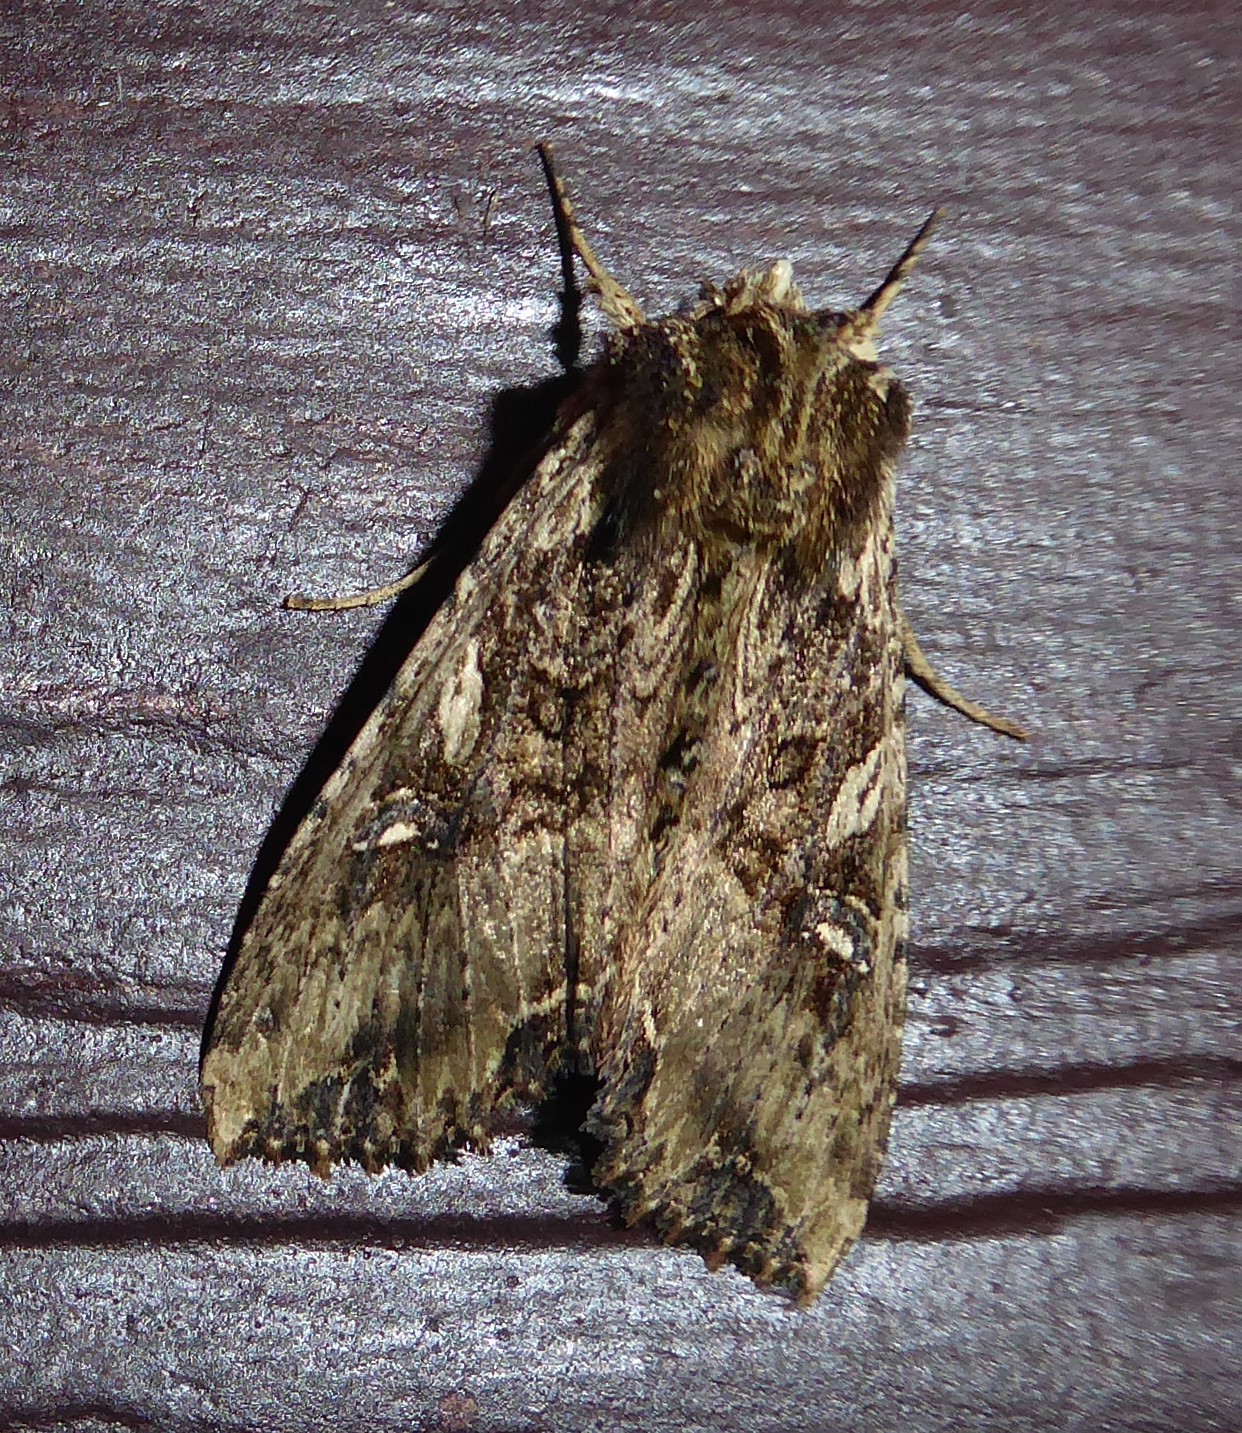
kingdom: Animalia
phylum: Arthropoda
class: Insecta
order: Lepidoptera
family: Noctuidae
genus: Meterana
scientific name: Meterana stipata
